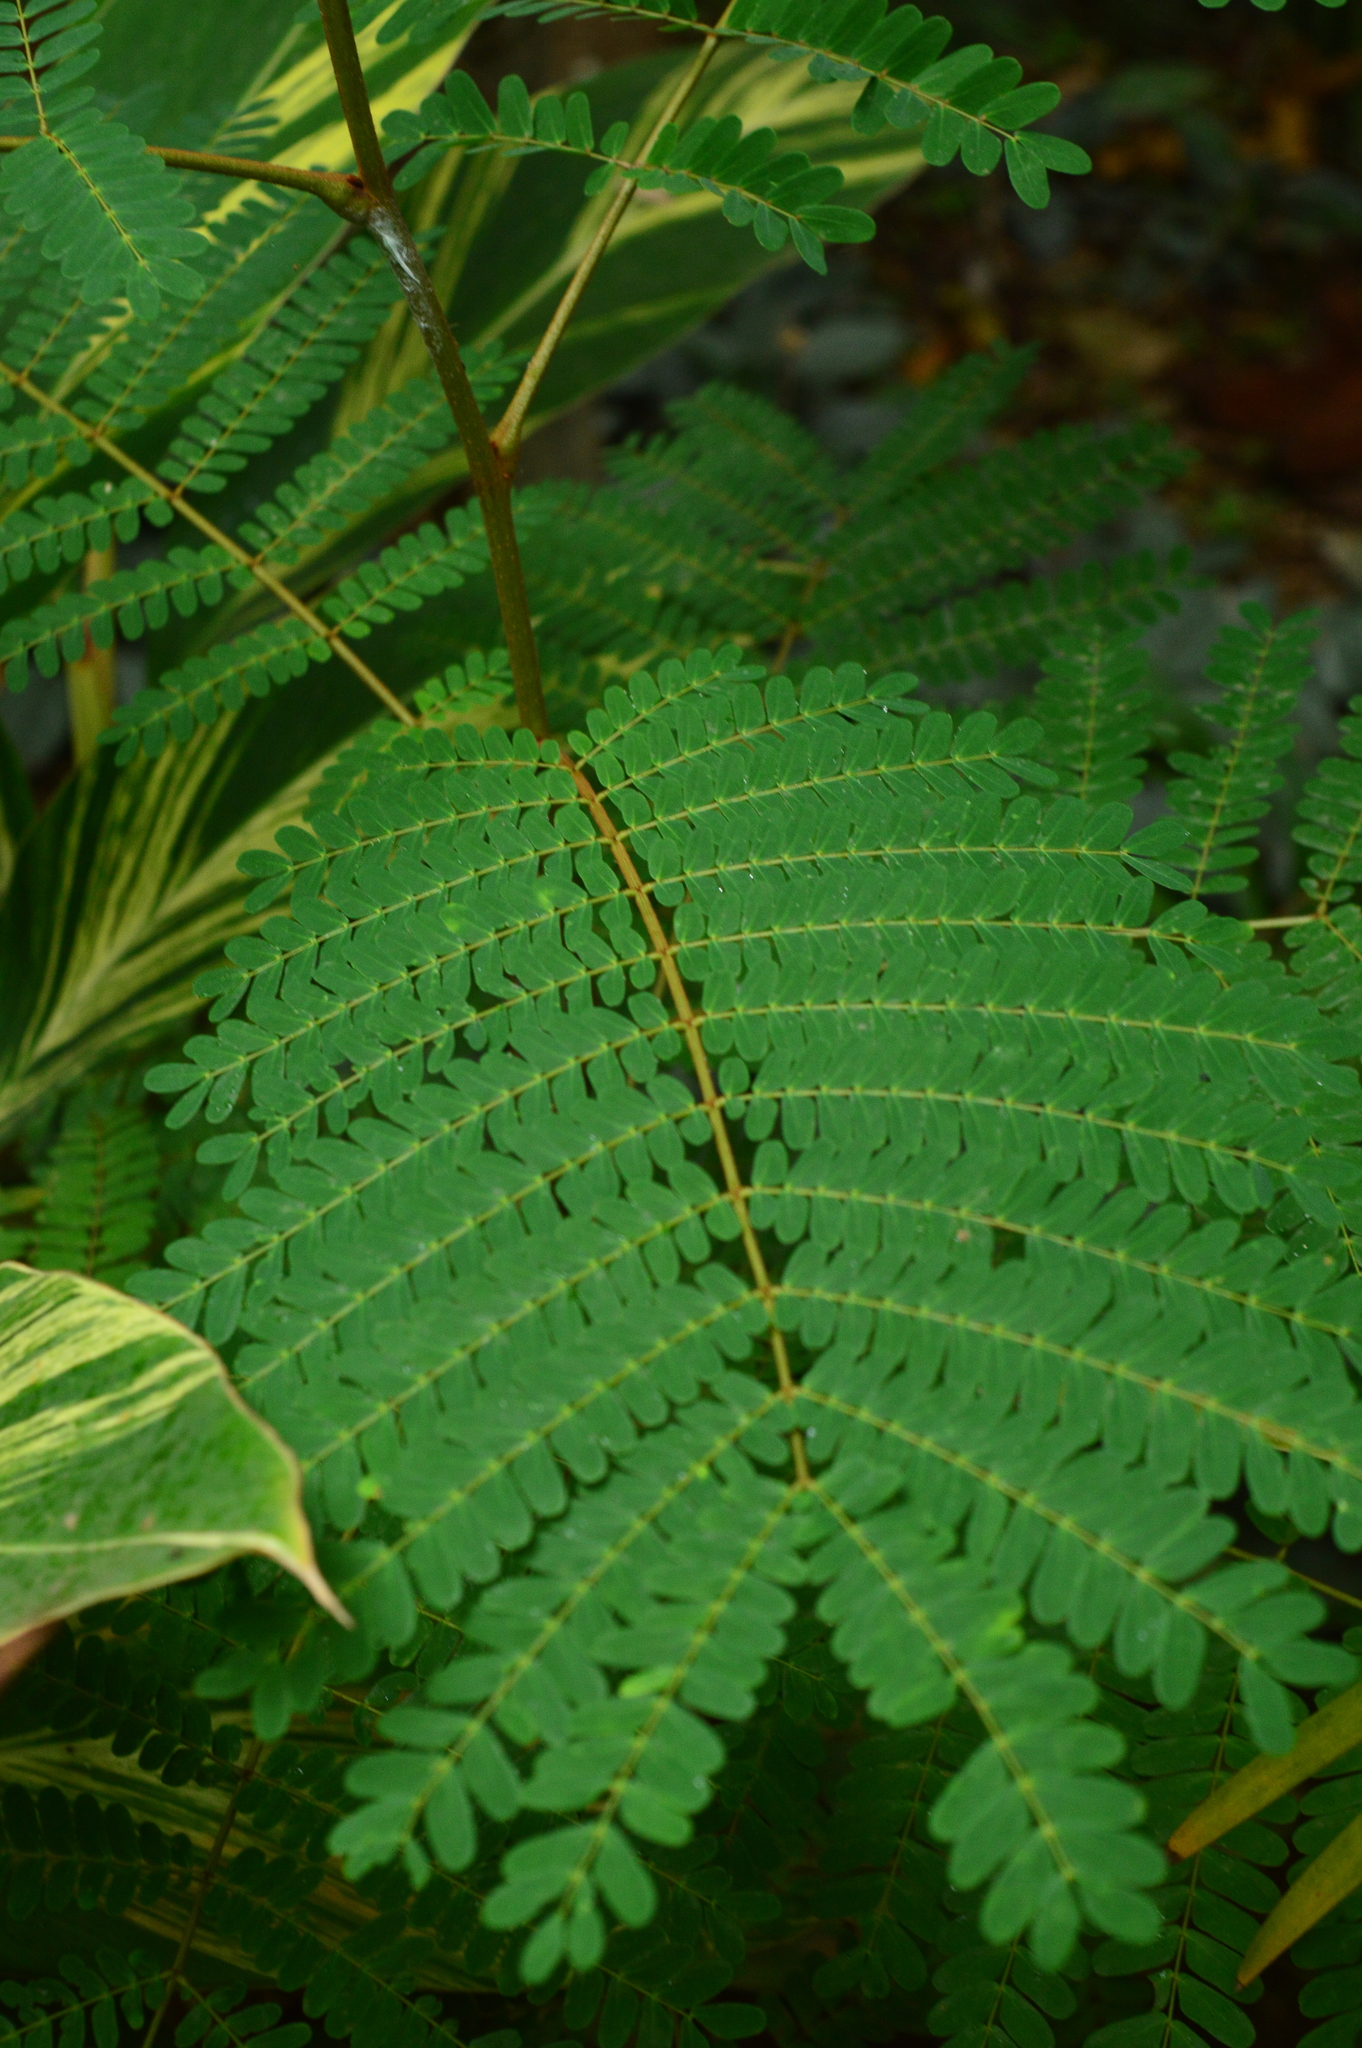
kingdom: Plantae
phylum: Tracheophyta
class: Magnoliopsida
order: Fabales
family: Fabaceae
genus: Delonix
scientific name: Delonix regia
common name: Royal poinciana
